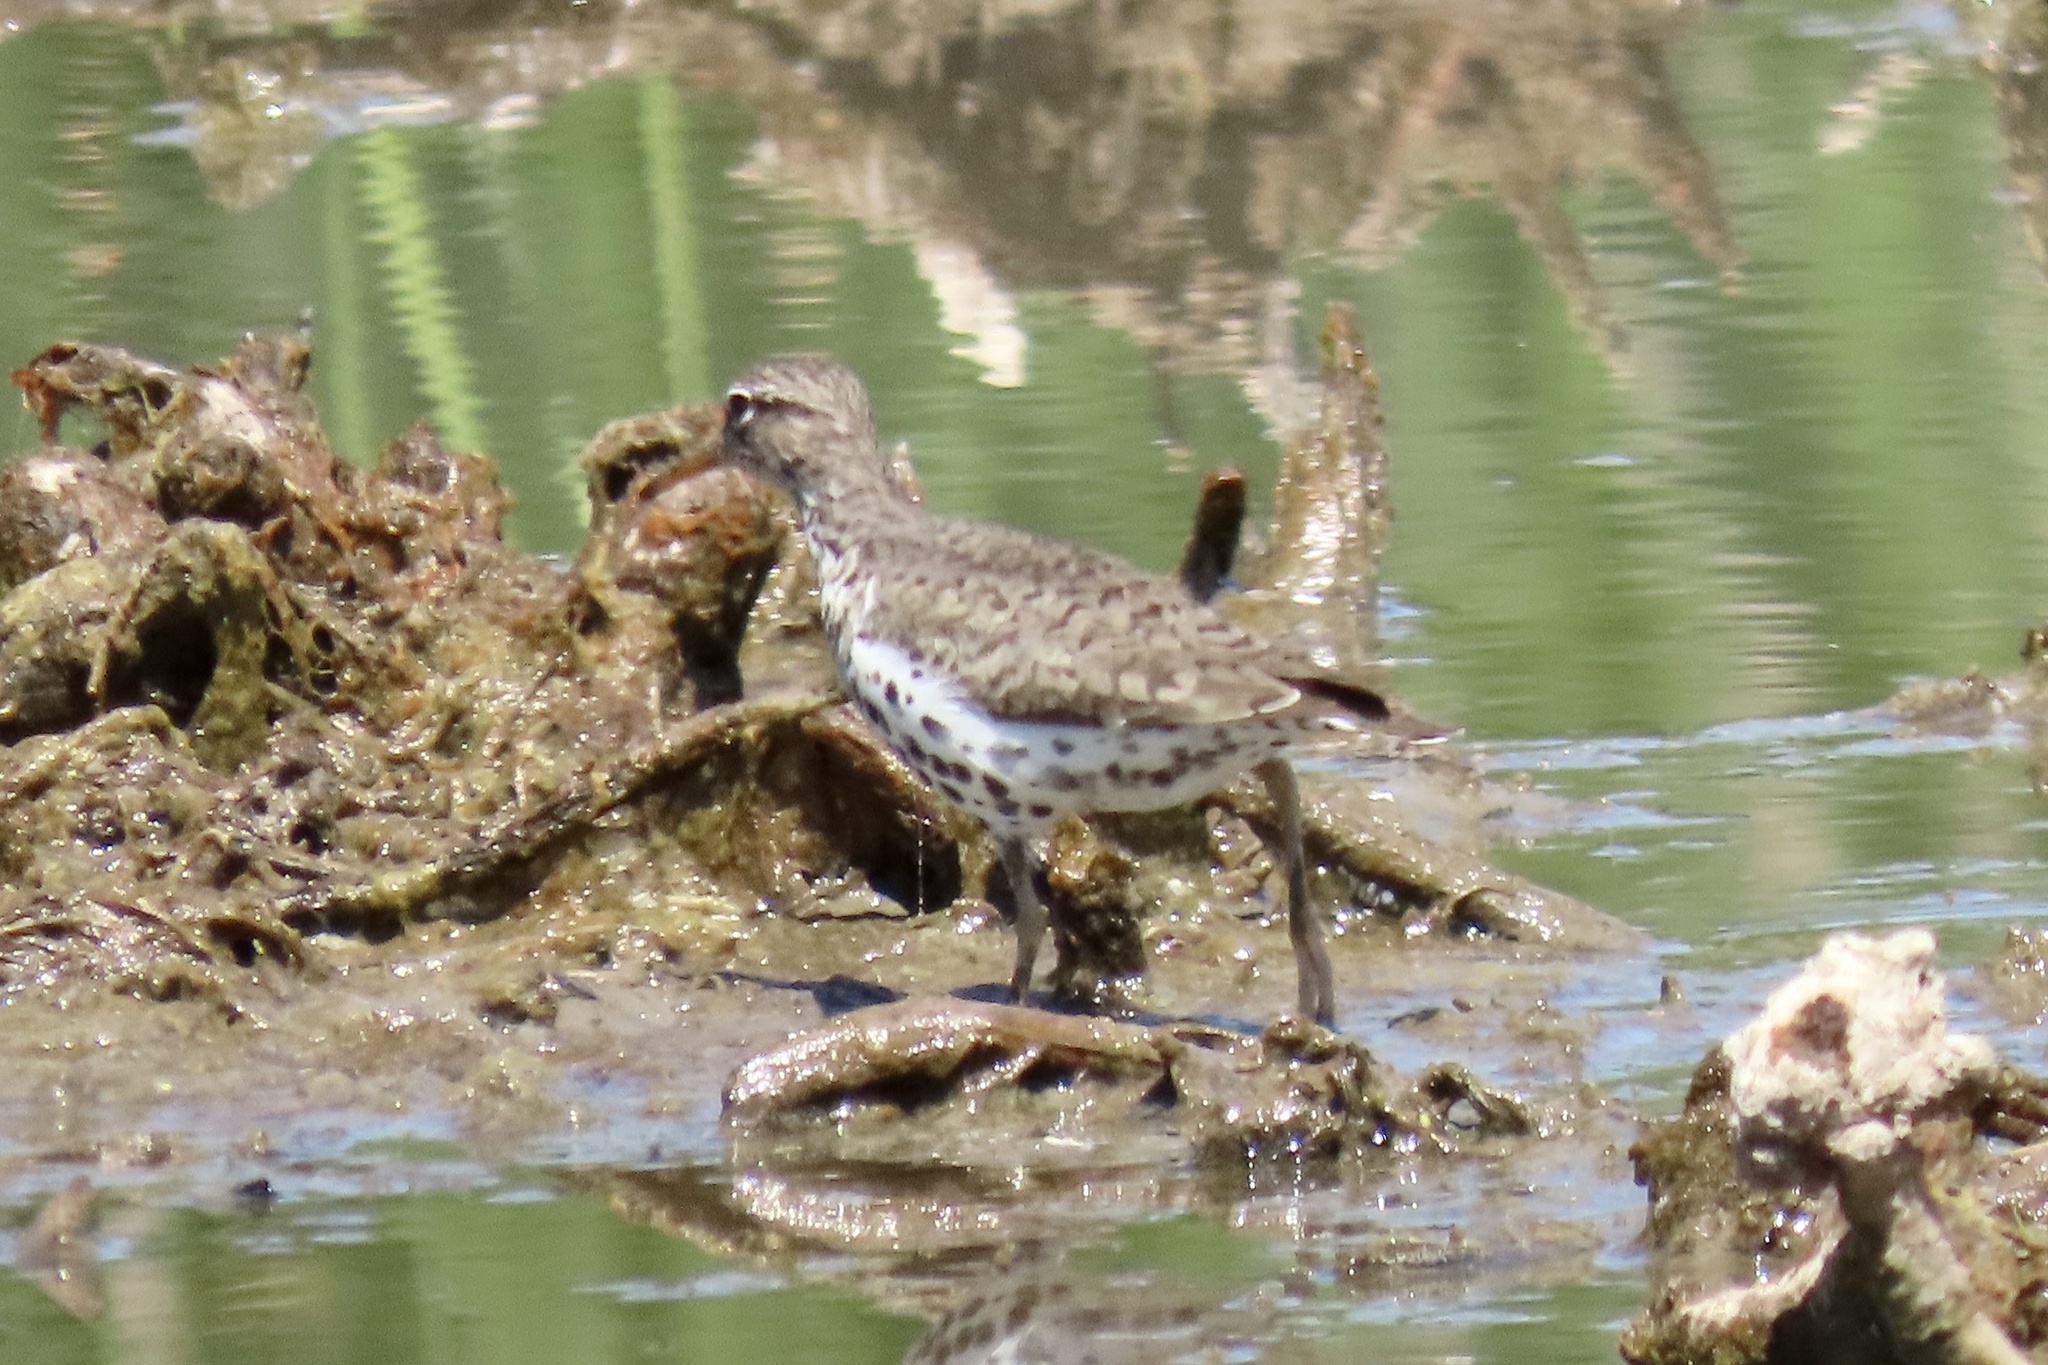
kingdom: Animalia
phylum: Chordata
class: Aves
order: Charadriiformes
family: Scolopacidae
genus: Actitis
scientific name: Actitis macularius
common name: Spotted sandpiper
